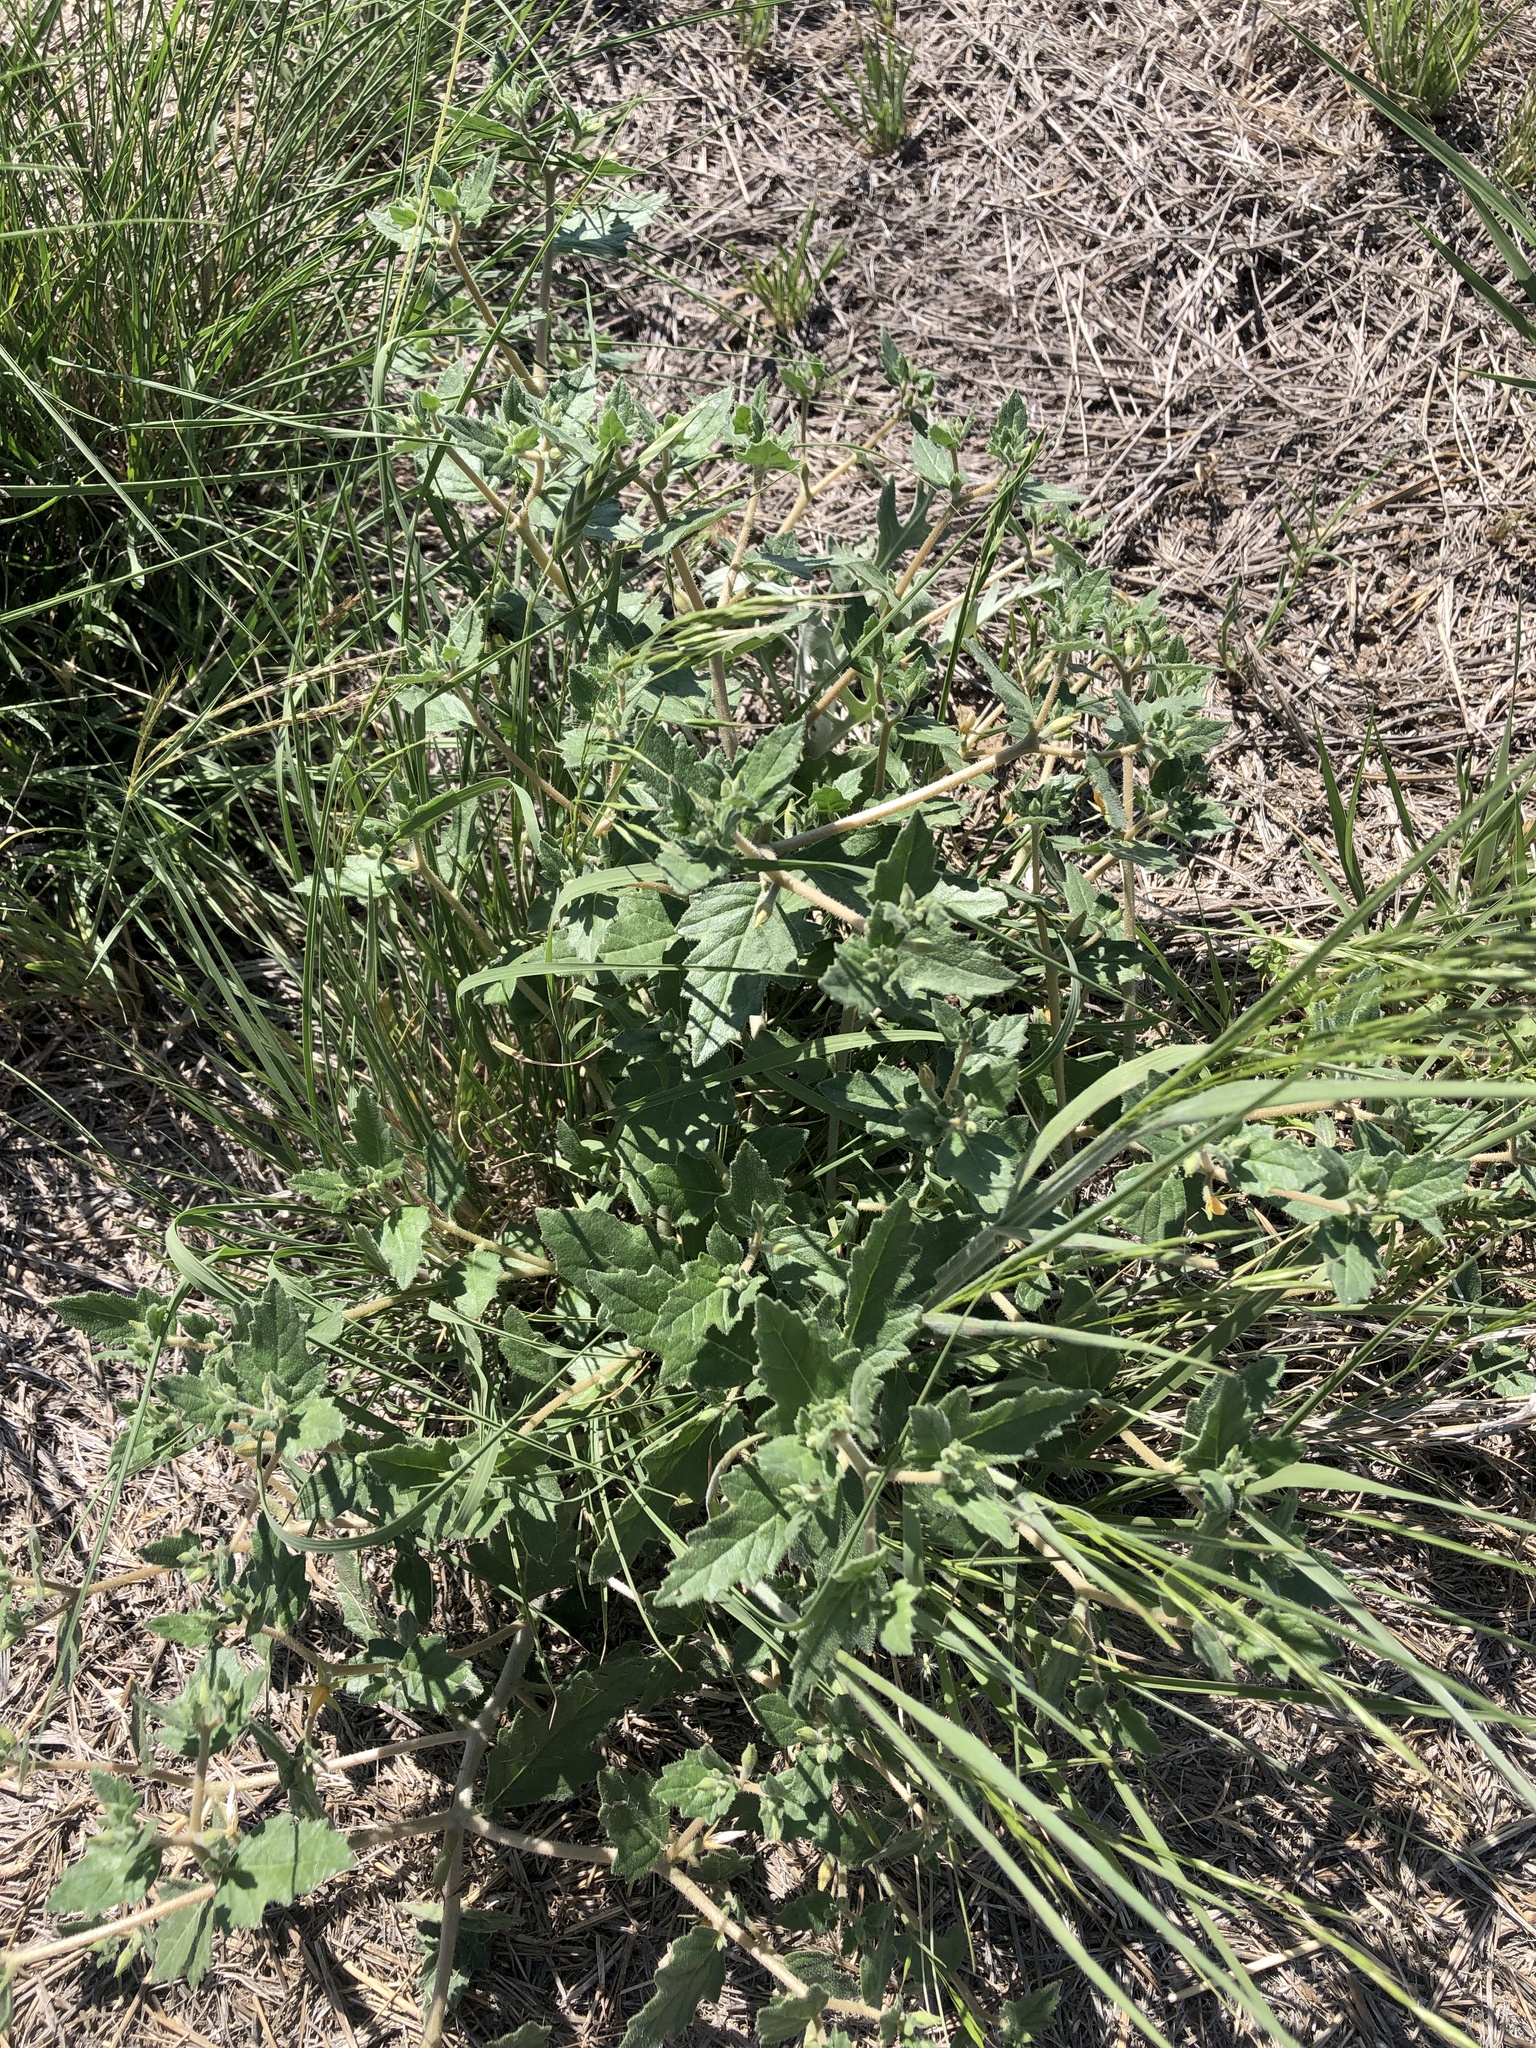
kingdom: Plantae
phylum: Tracheophyta
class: Magnoliopsida
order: Cornales
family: Loasaceae
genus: Mentzelia
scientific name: Mentzelia oligosperma
